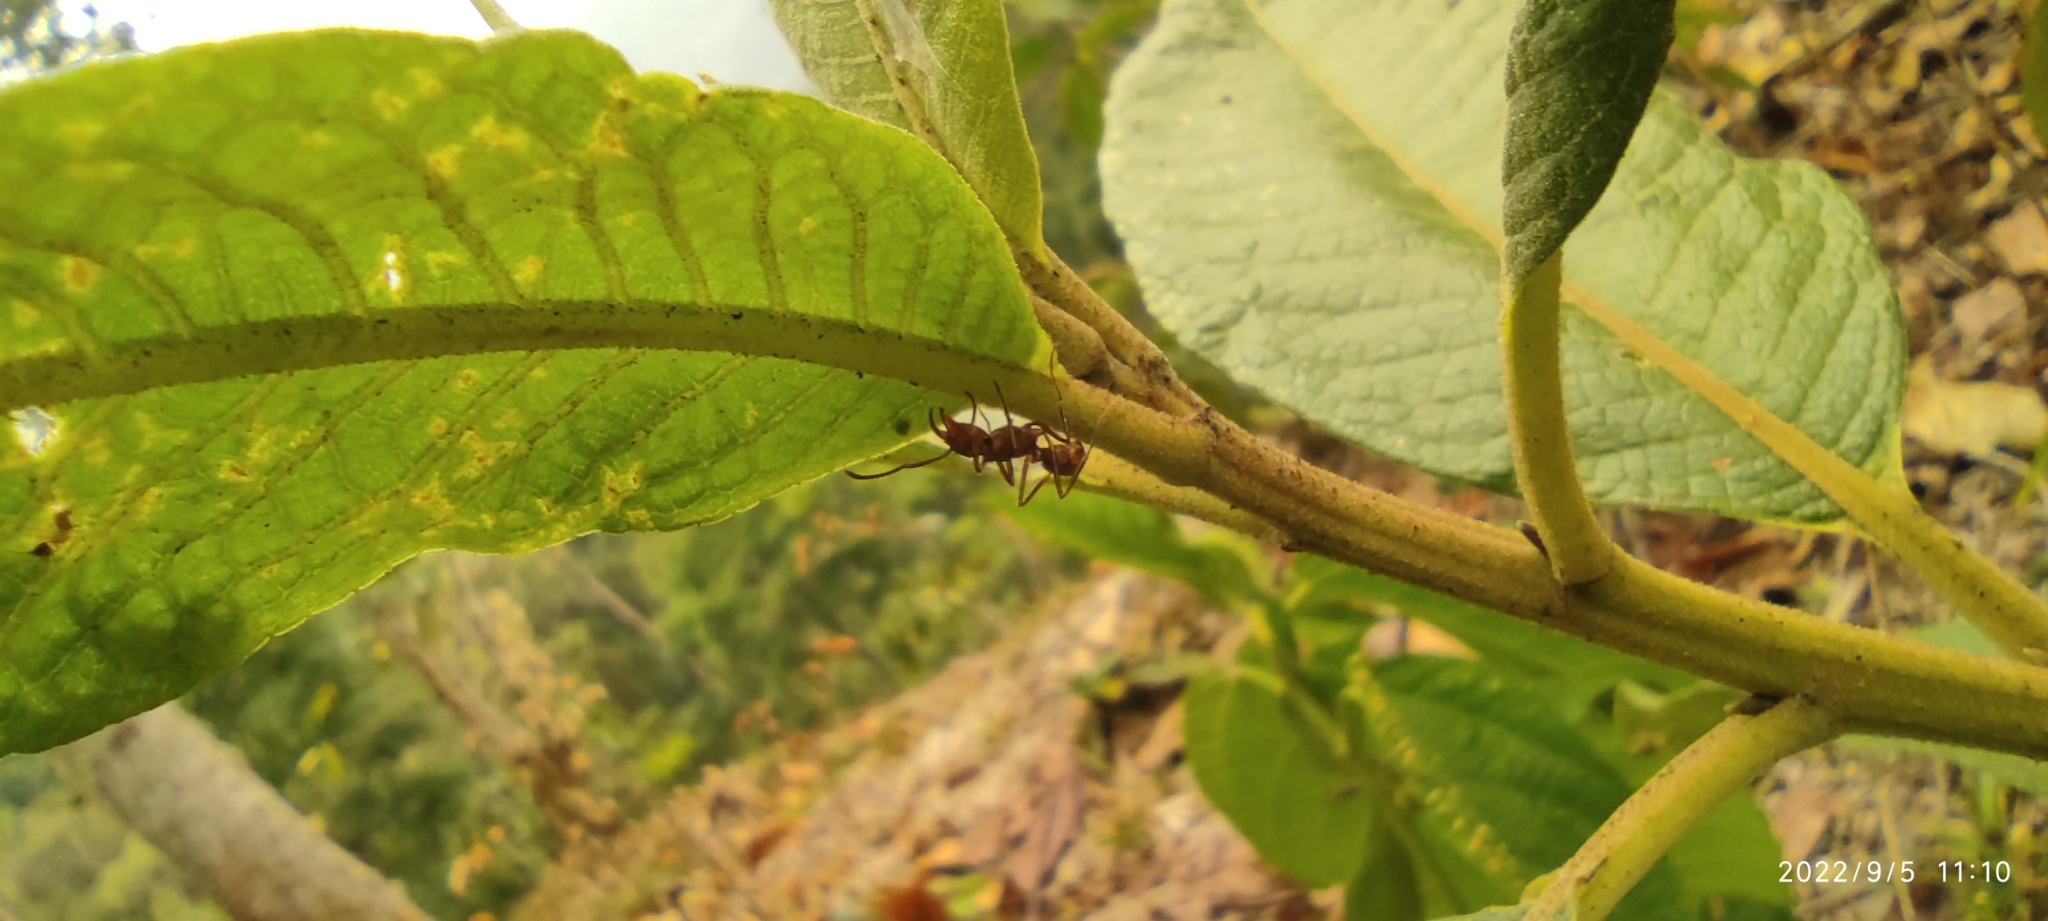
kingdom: Animalia
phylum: Arthropoda
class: Insecta
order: Hymenoptera
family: Formicidae
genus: Ectatomma
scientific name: Ectatomma tuberculatum
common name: Ant
